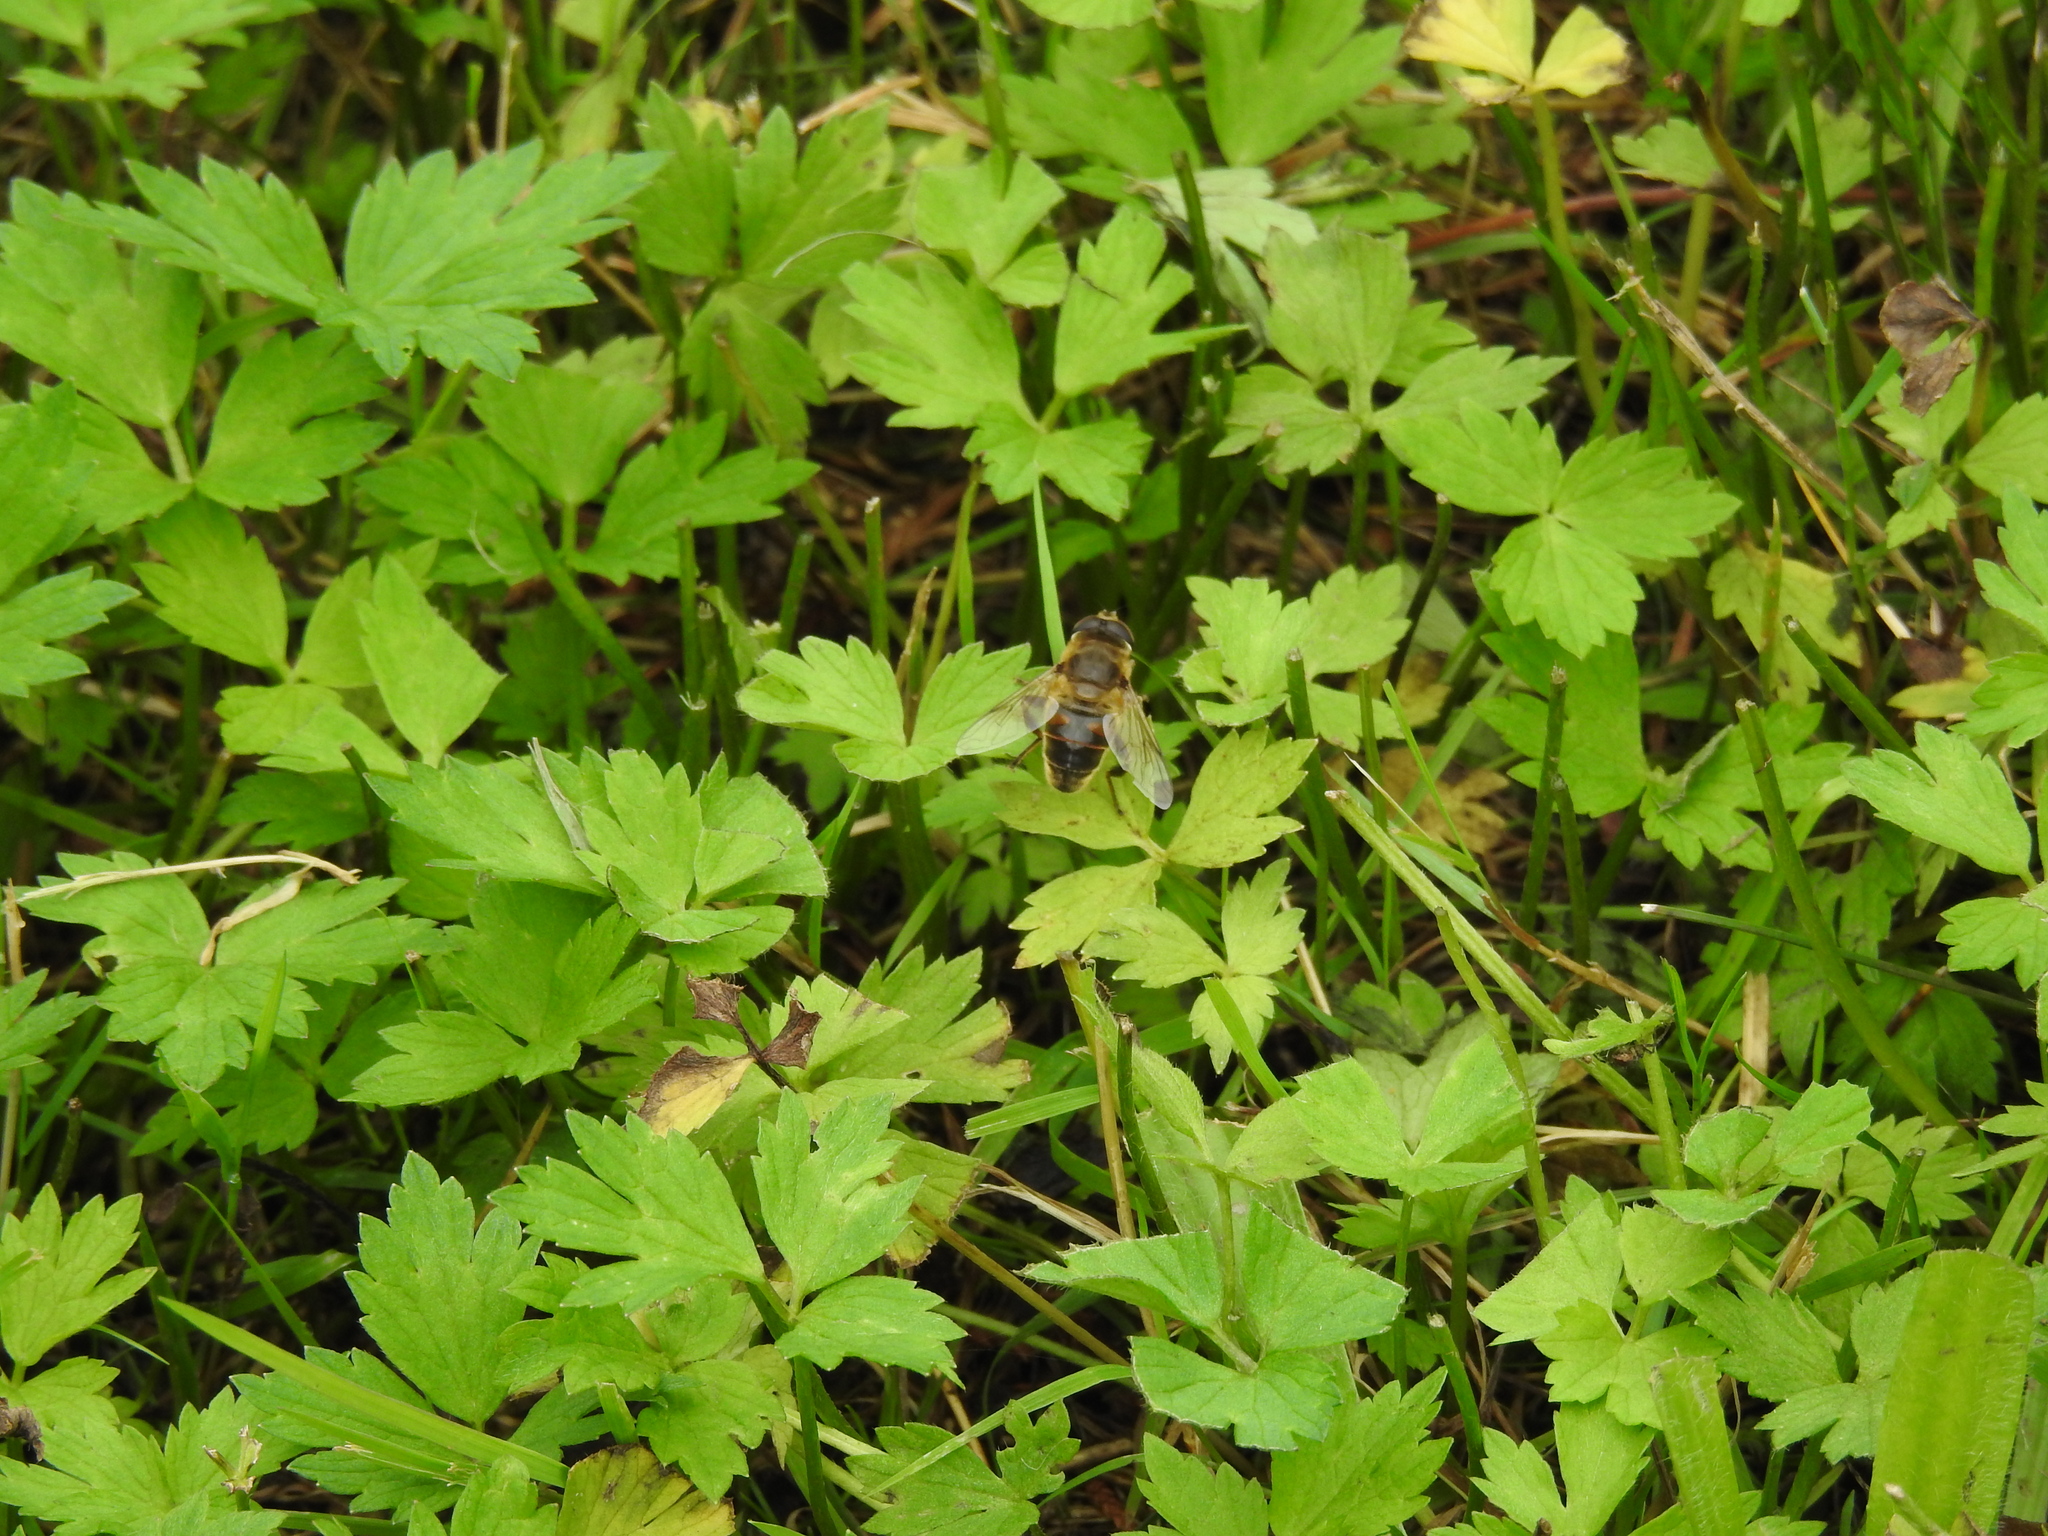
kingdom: Animalia
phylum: Arthropoda
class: Insecta
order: Diptera
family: Syrphidae
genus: Eristalis
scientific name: Eristalis tenax
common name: Drone fly
